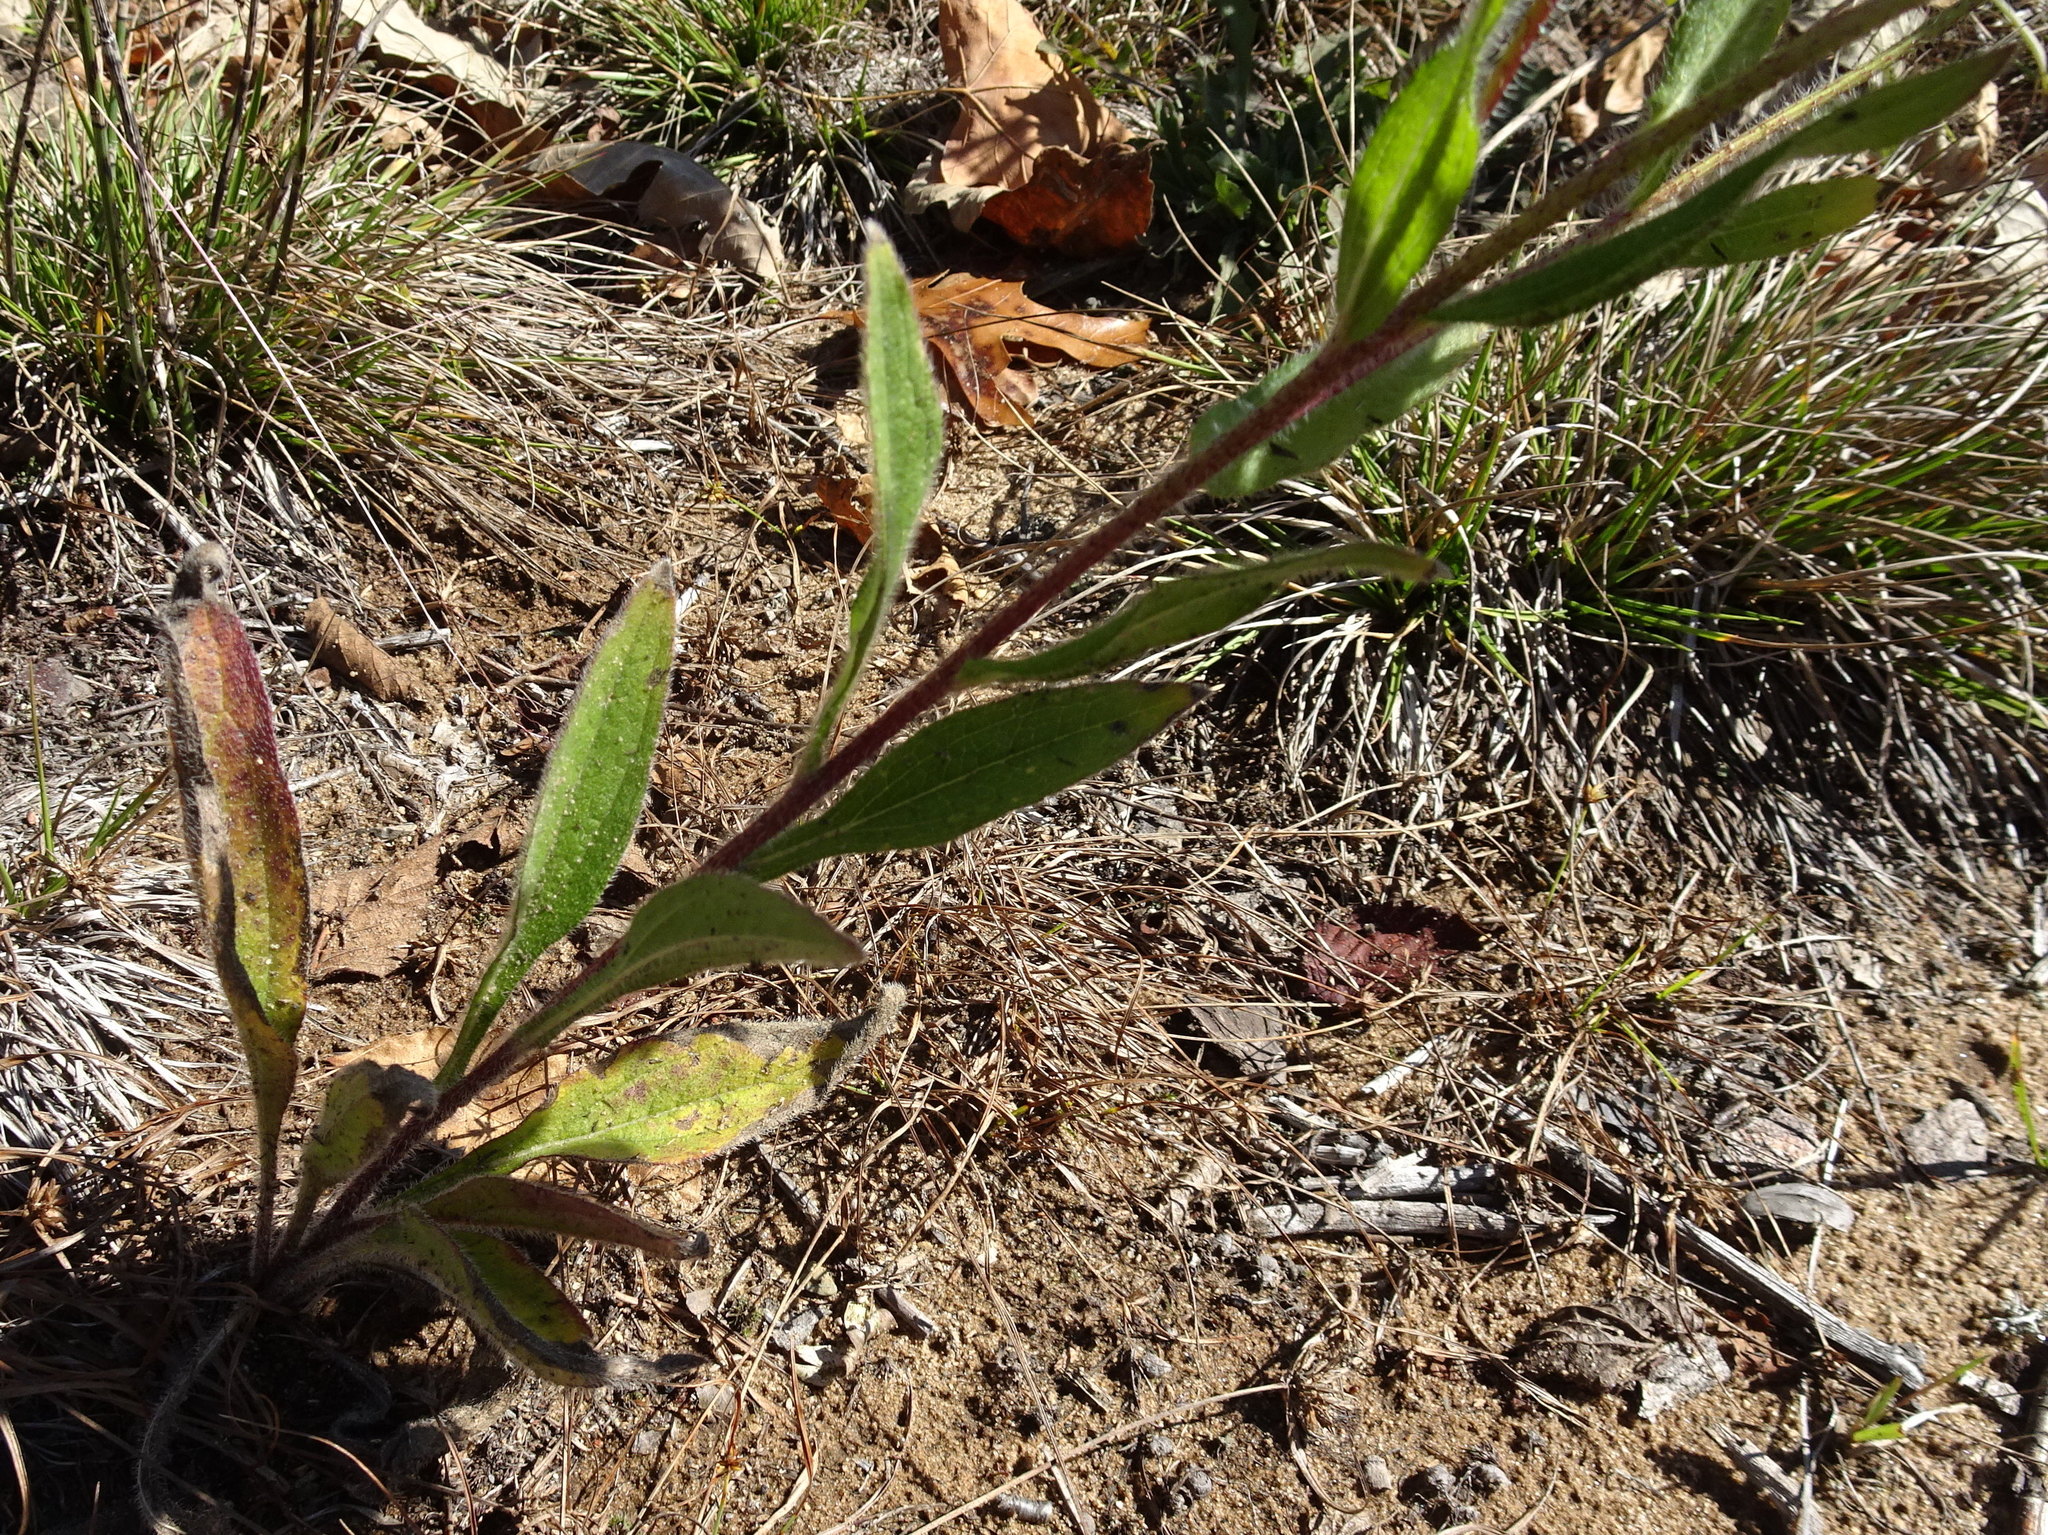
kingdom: Plantae
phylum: Tracheophyta
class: Magnoliopsida
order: Asterales
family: Asteraceae
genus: Rudbeckia
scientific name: Rudbeckia hirta
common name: Black-eyed-susan
